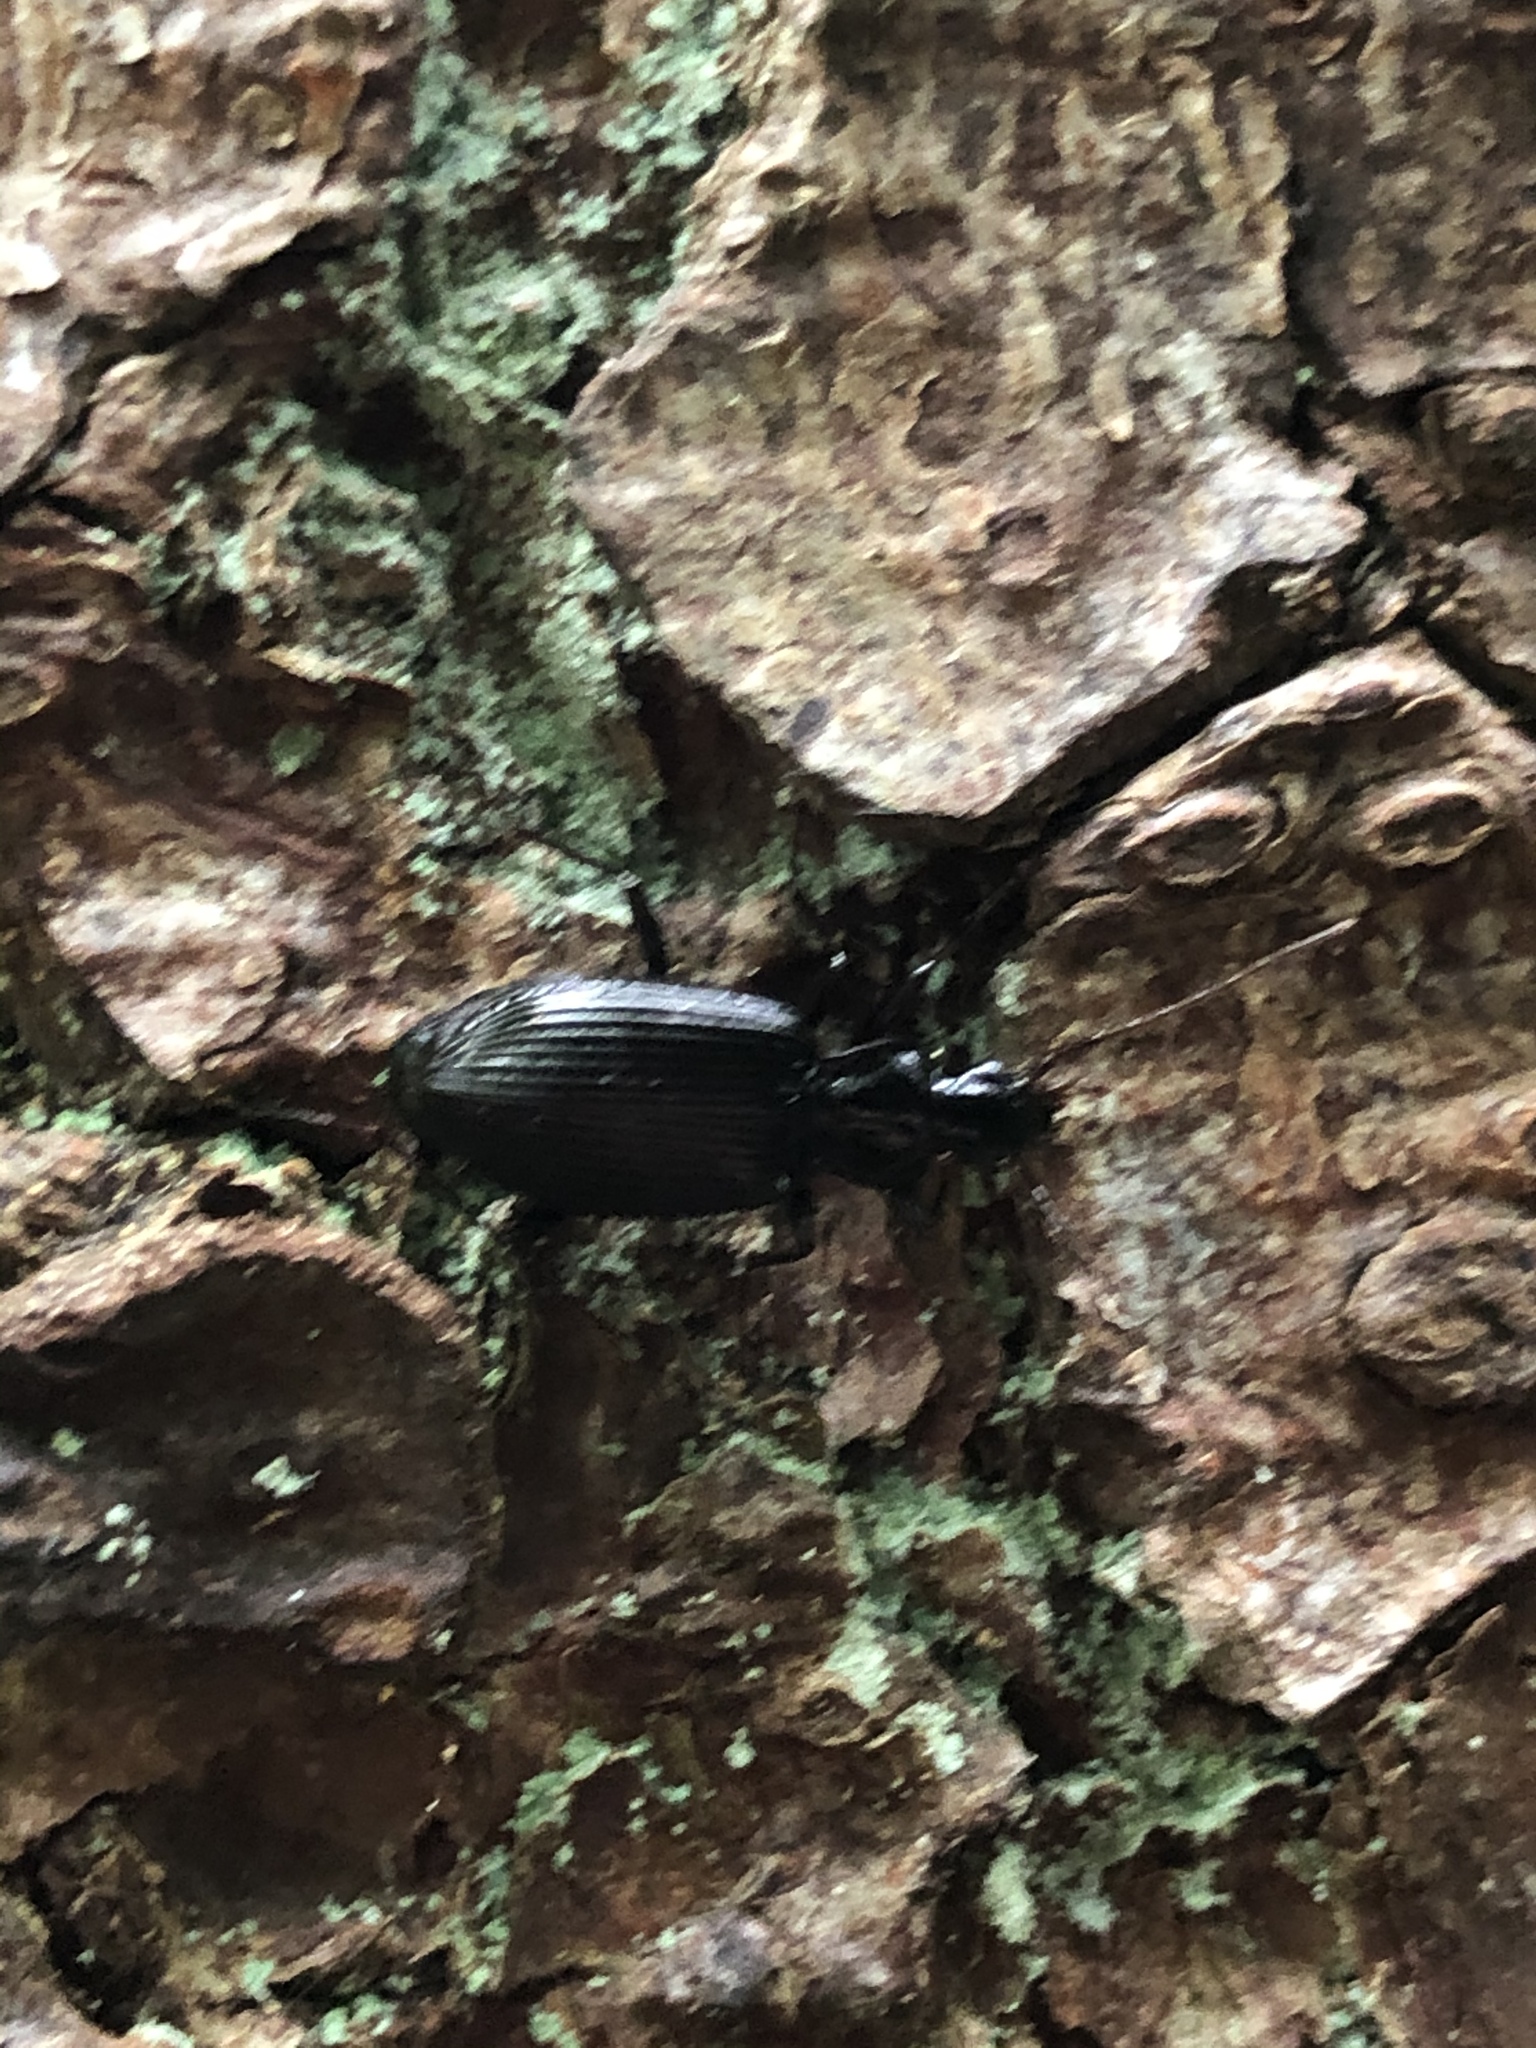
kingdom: Animalia
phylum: Arthropoda
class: Insecta
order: Coleoptera
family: Carabidae
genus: Platynus
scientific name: Platynus assimilis
